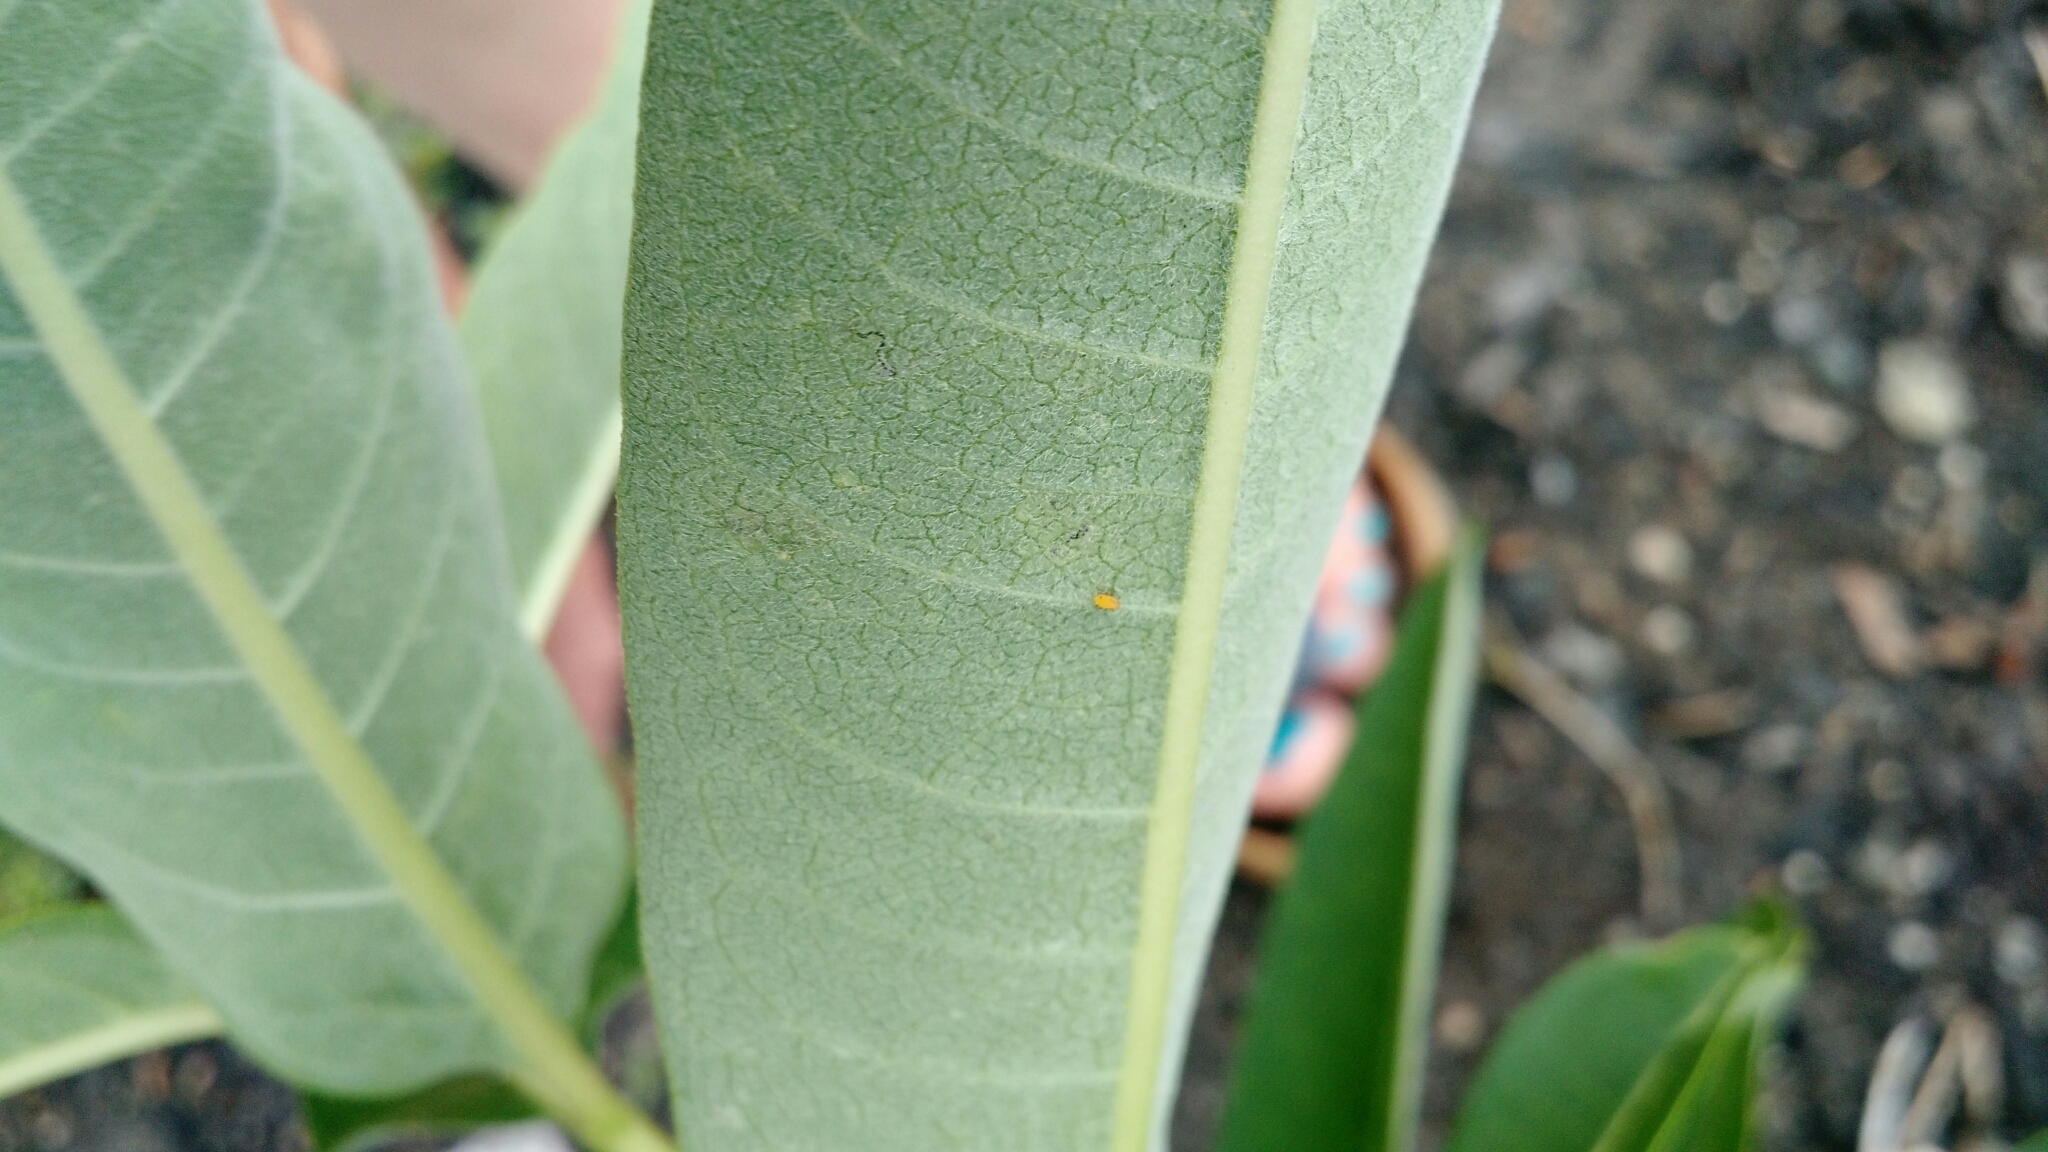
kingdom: Animalia
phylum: Arthropoda
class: Insecta
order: Hemiptera
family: Aphididae
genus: Aphis
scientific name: Aphis nerii
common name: Oleander aphid
